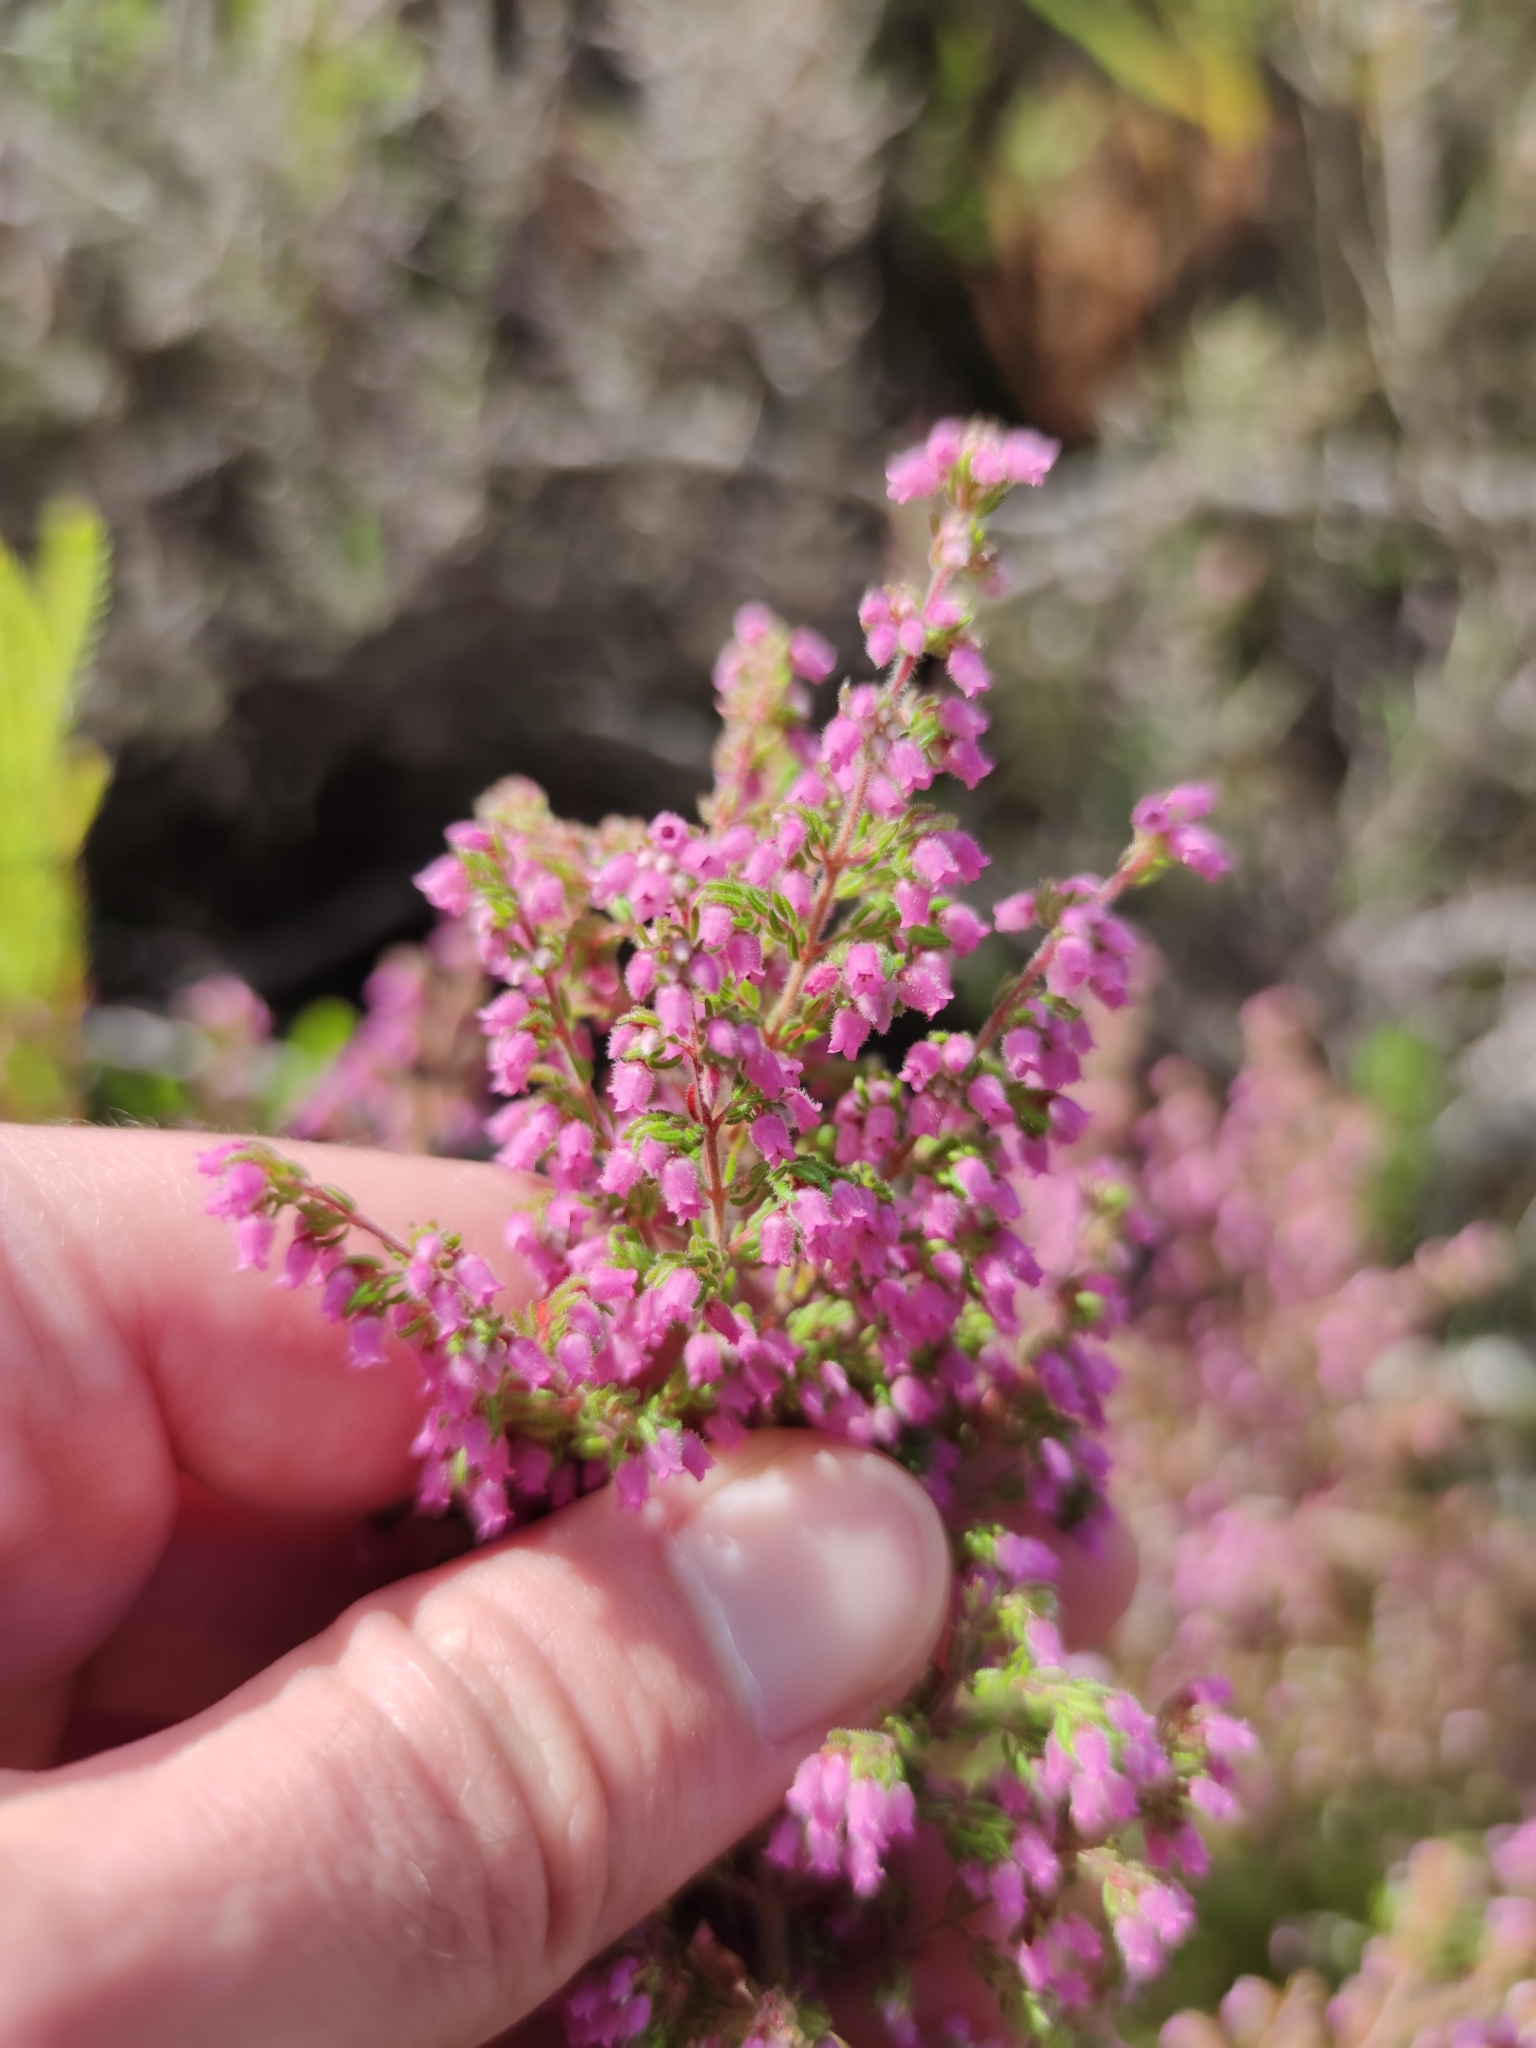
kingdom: Plantae
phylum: Tracheophyta
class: Magnoliopsida
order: Ericales
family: Ericaceae
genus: Erica
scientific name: Erica parviflora
